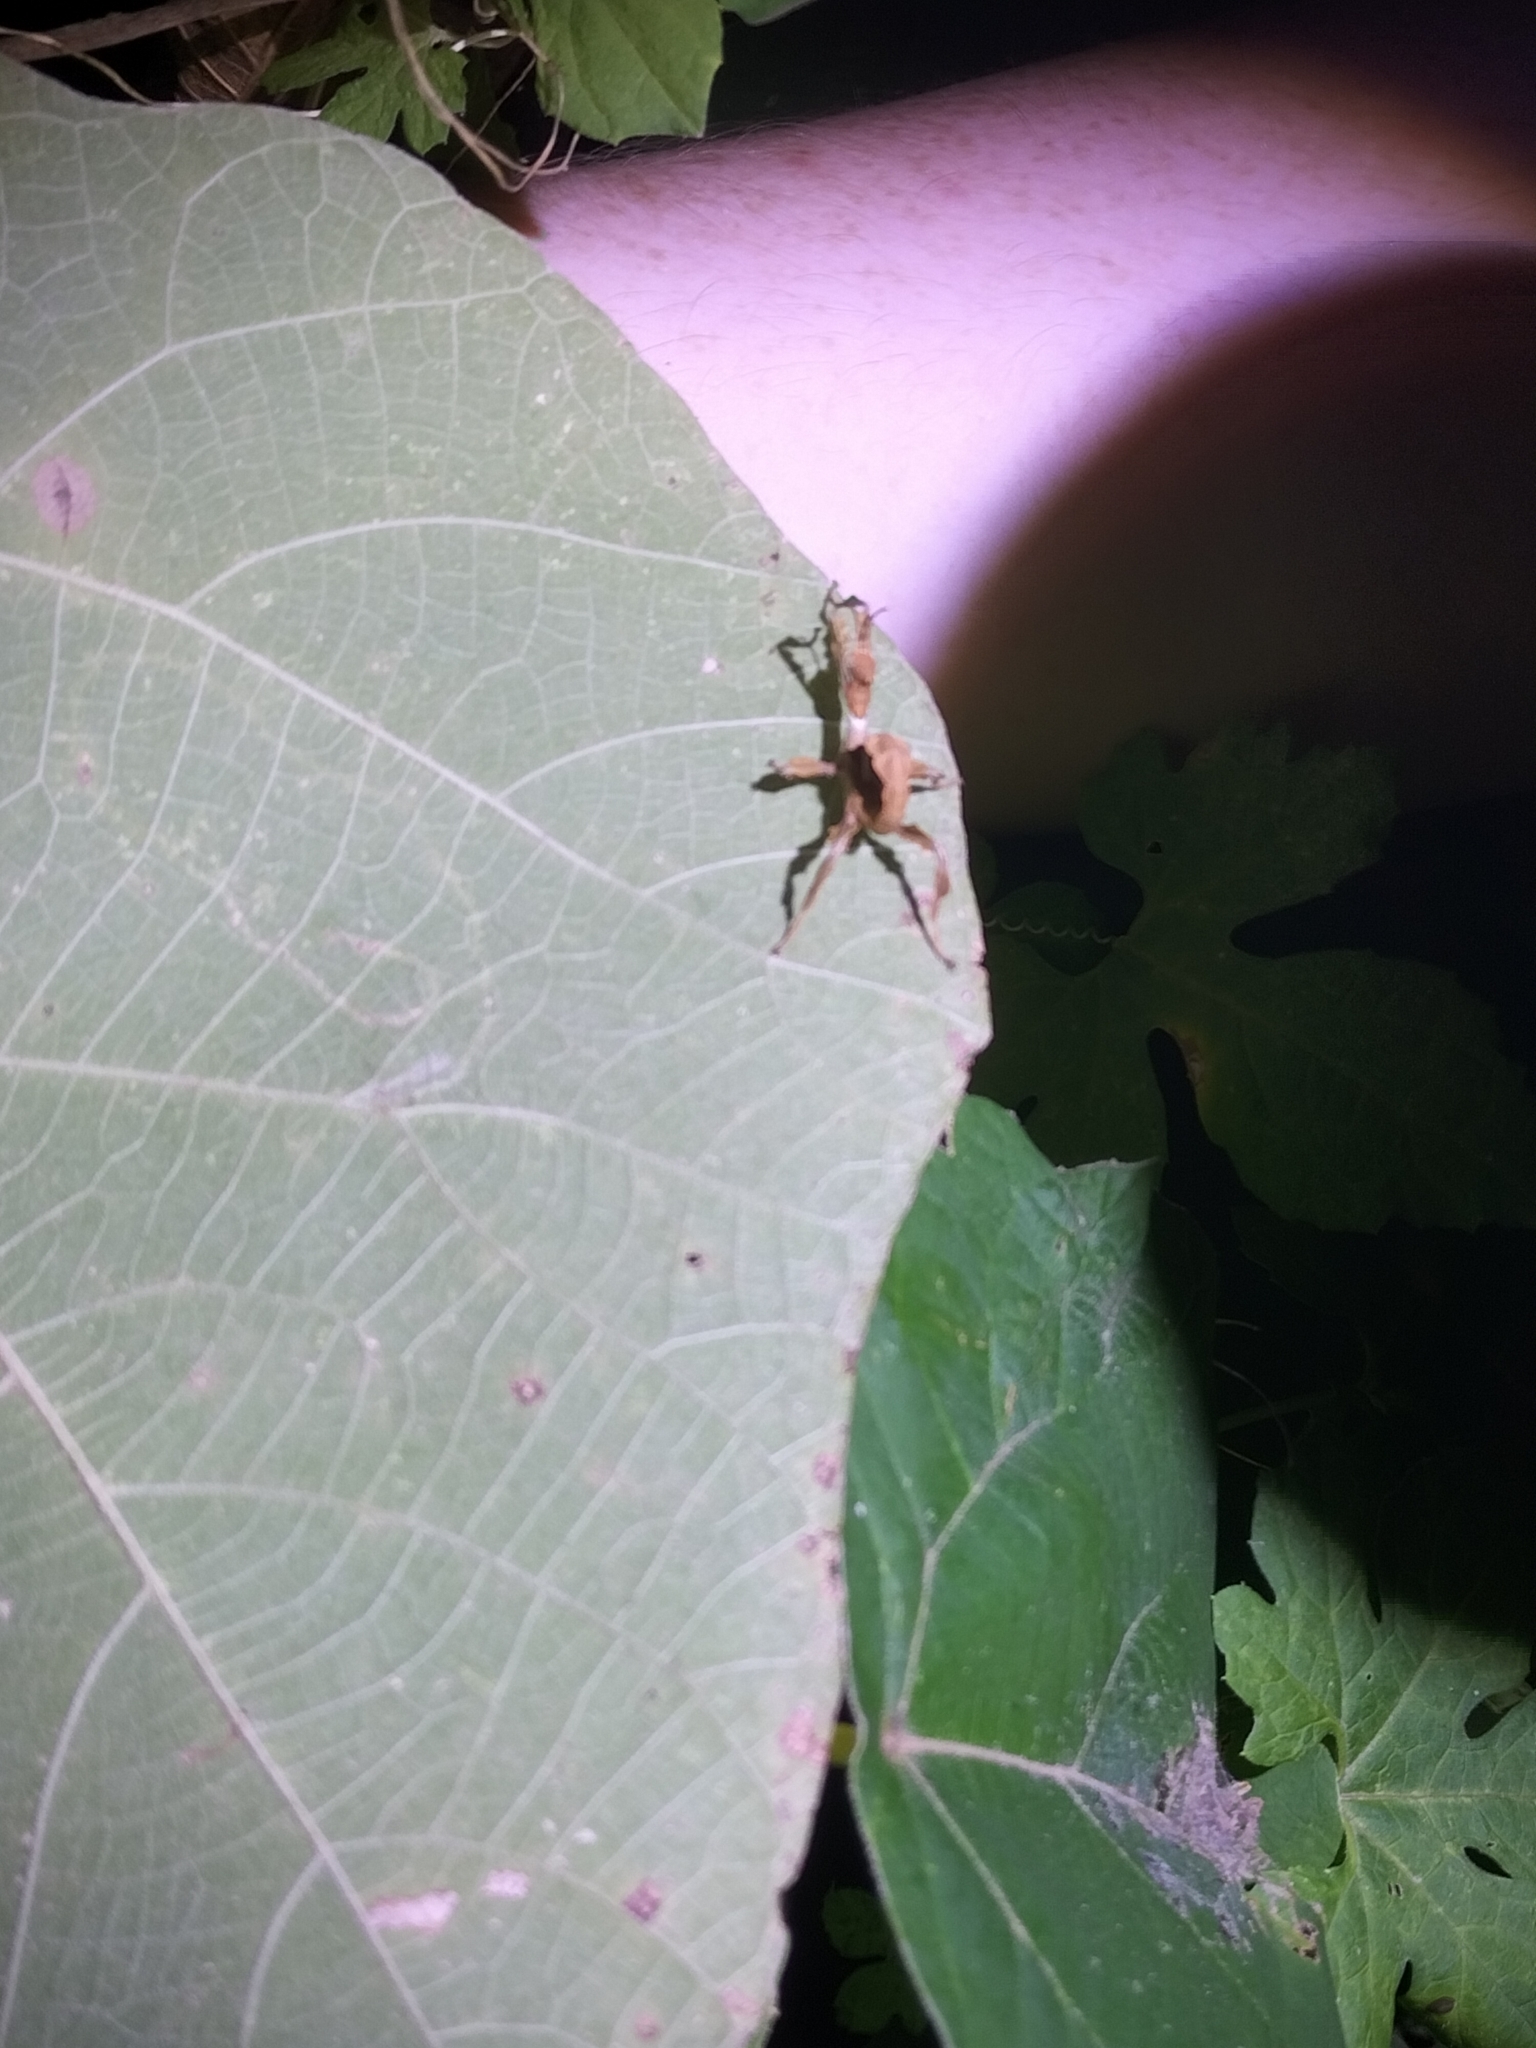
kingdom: Animalia
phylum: Arthropoda
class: Insecta
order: Phasmida
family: Phasmatidae
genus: Extatosoma
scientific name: Extatosoma tiaratum
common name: Macleay's spectre
